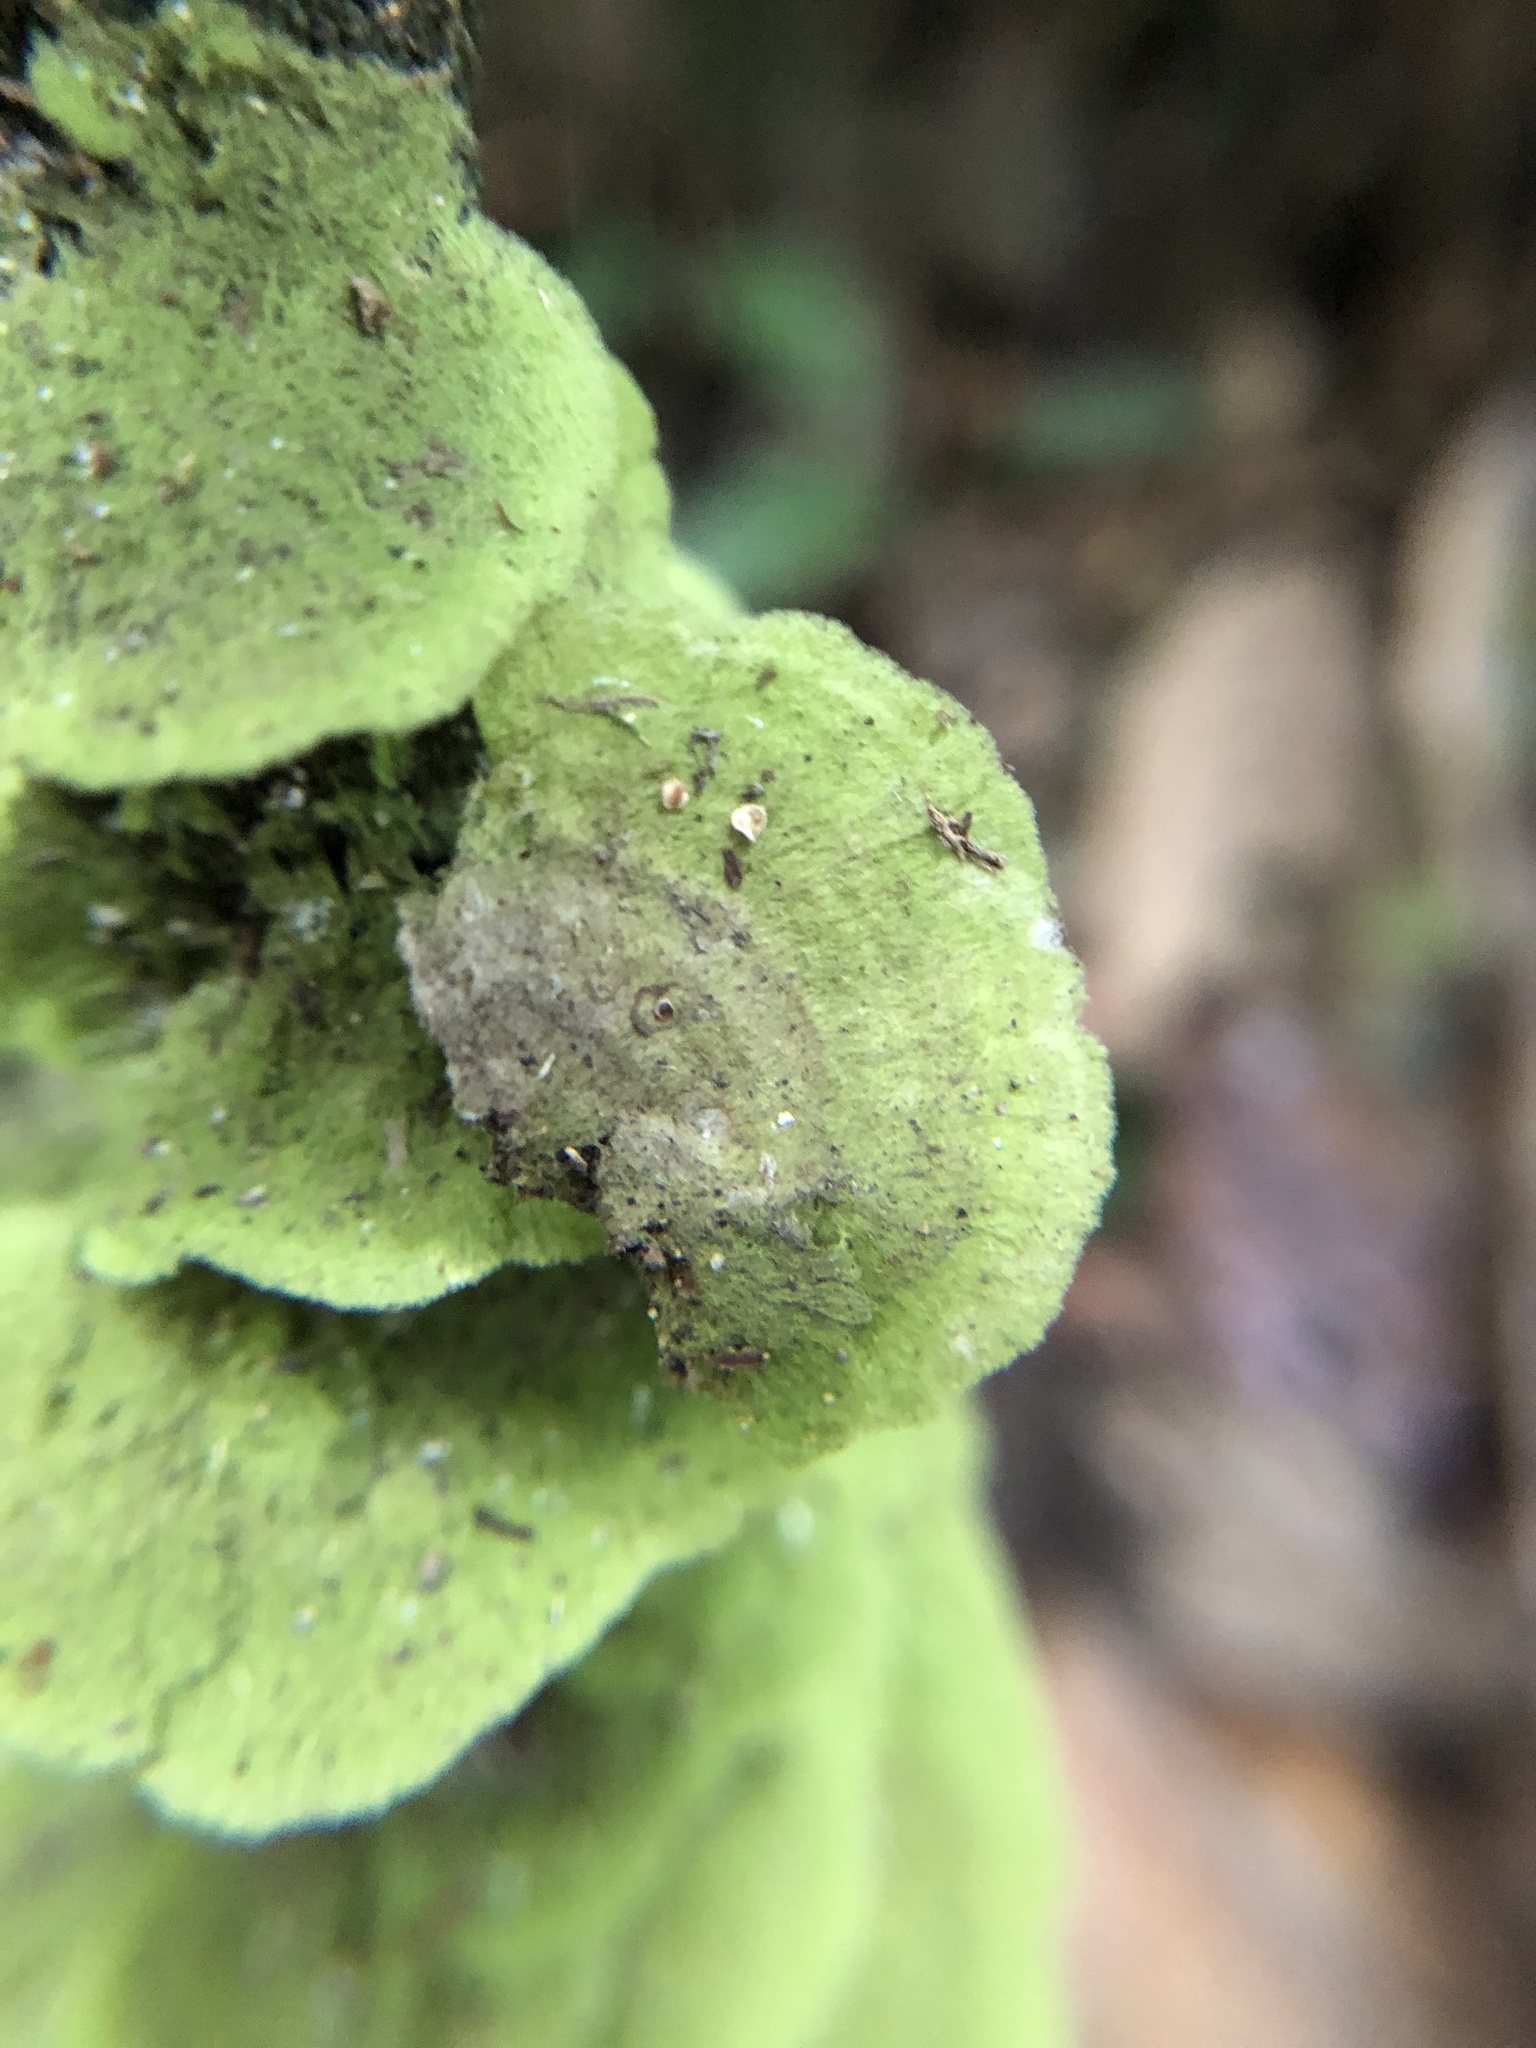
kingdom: Fungi
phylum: Ascomycota
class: Lecanoromycetes
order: Ostropales
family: Coenogoniaceae
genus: Coenogonium
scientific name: Coenogonium
